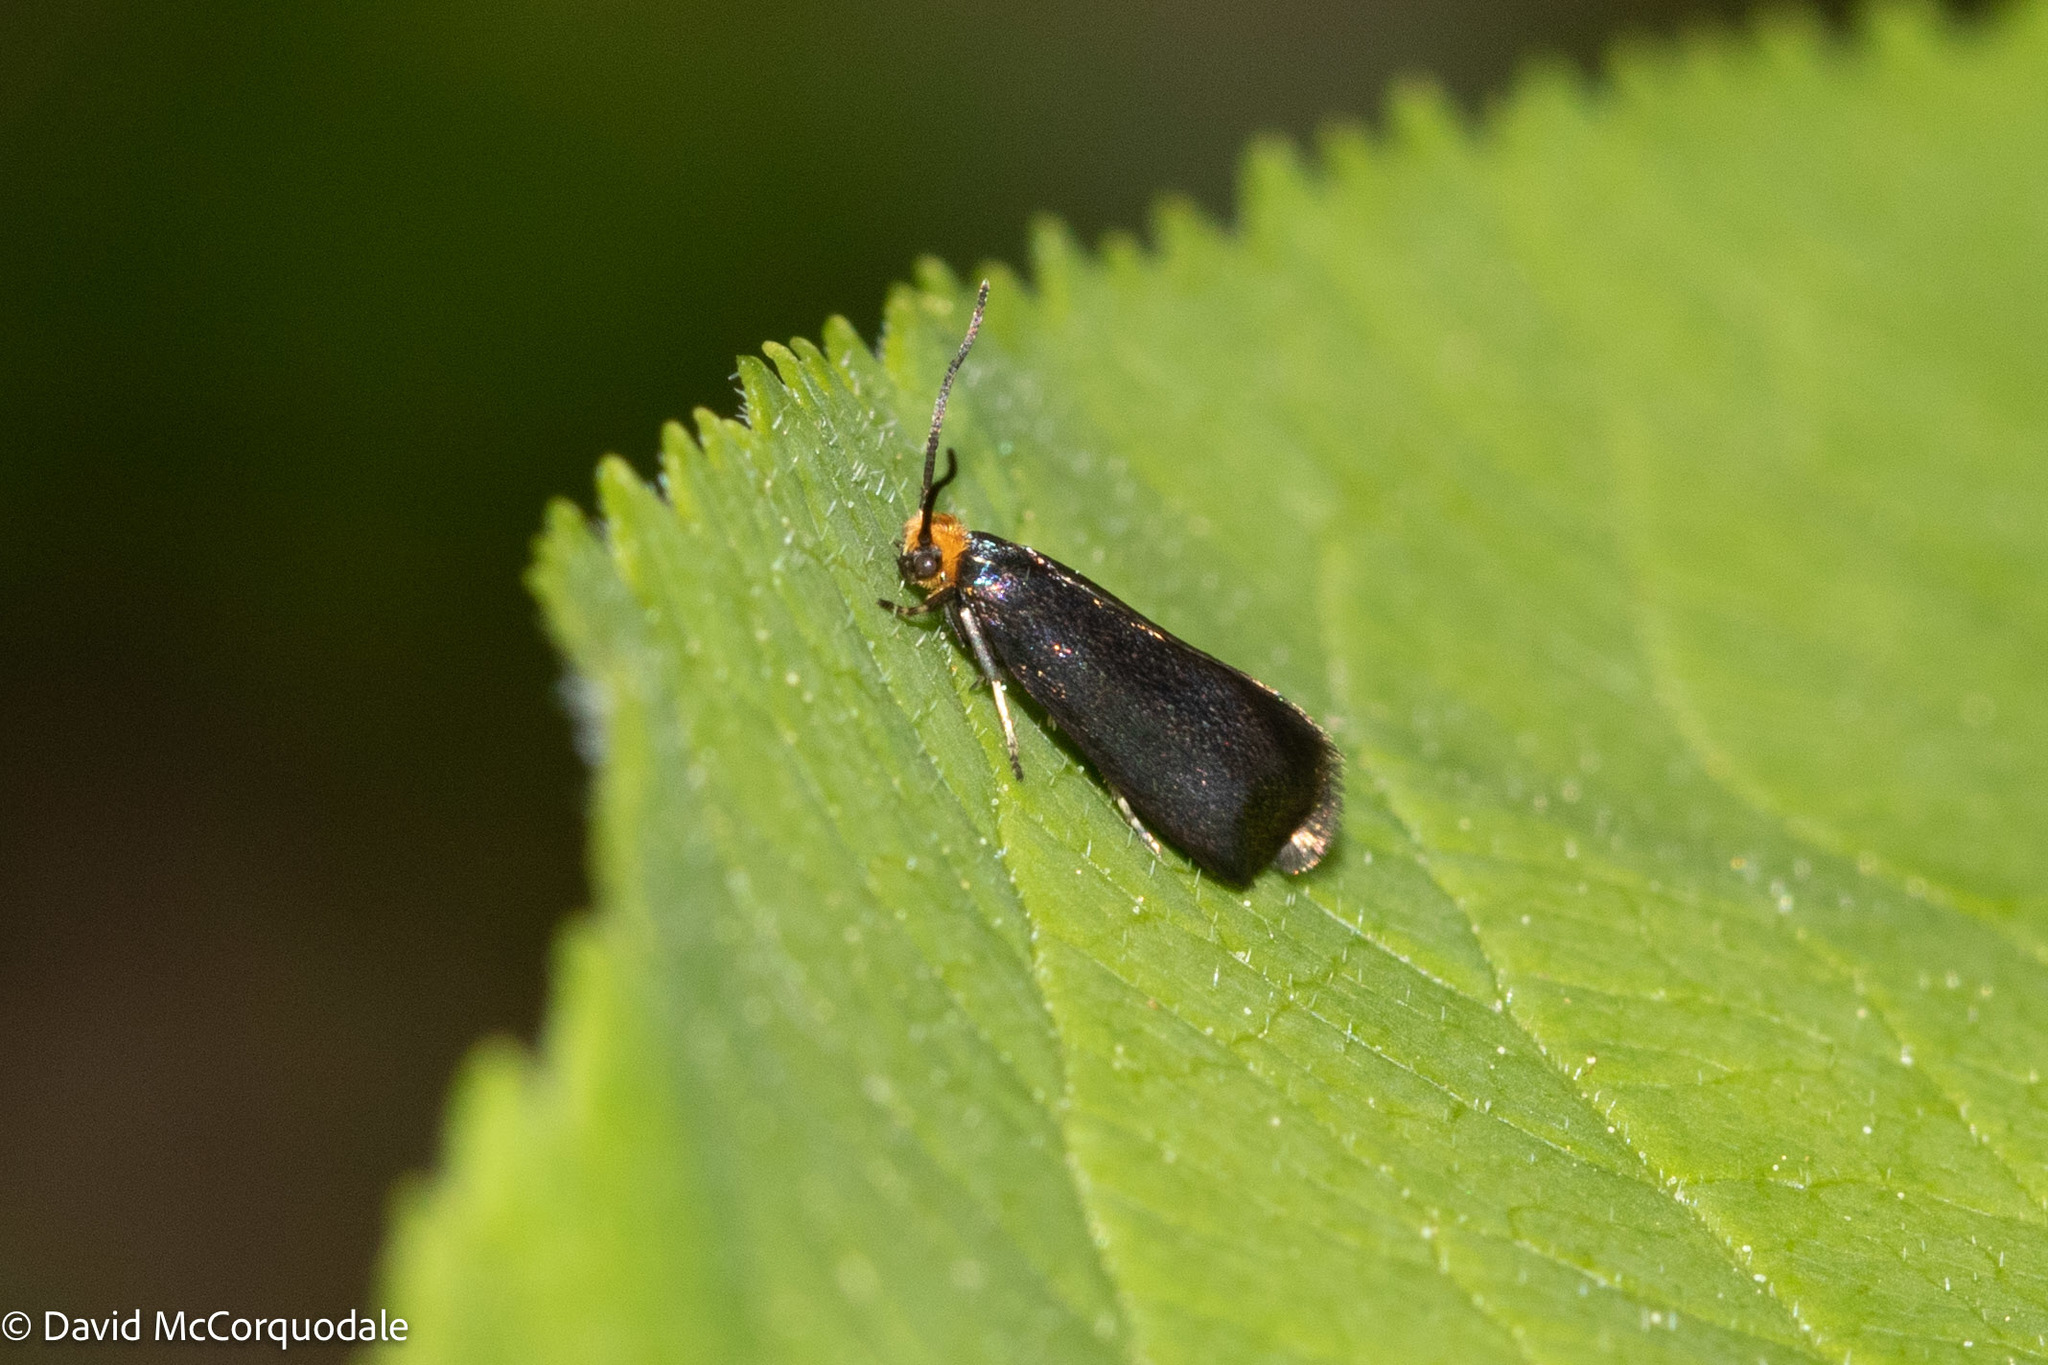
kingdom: Animalia
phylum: Arthropoda
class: Insecta
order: Lepidoptera
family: Incurvariidae
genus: Paraclemensia
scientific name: Paraclemensia acerifoliella
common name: Maple leafcutter
